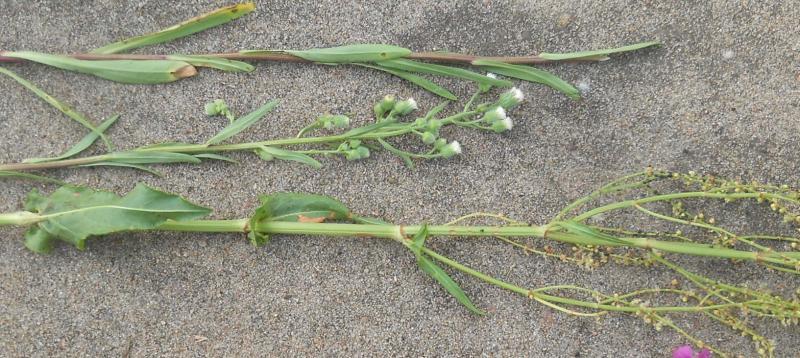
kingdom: Plantae
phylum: Tracheophyta
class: Magnoliopsida
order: Asterales
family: Asteraceae
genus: Erigeron
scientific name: Erigeron acris
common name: Blue fleabane
